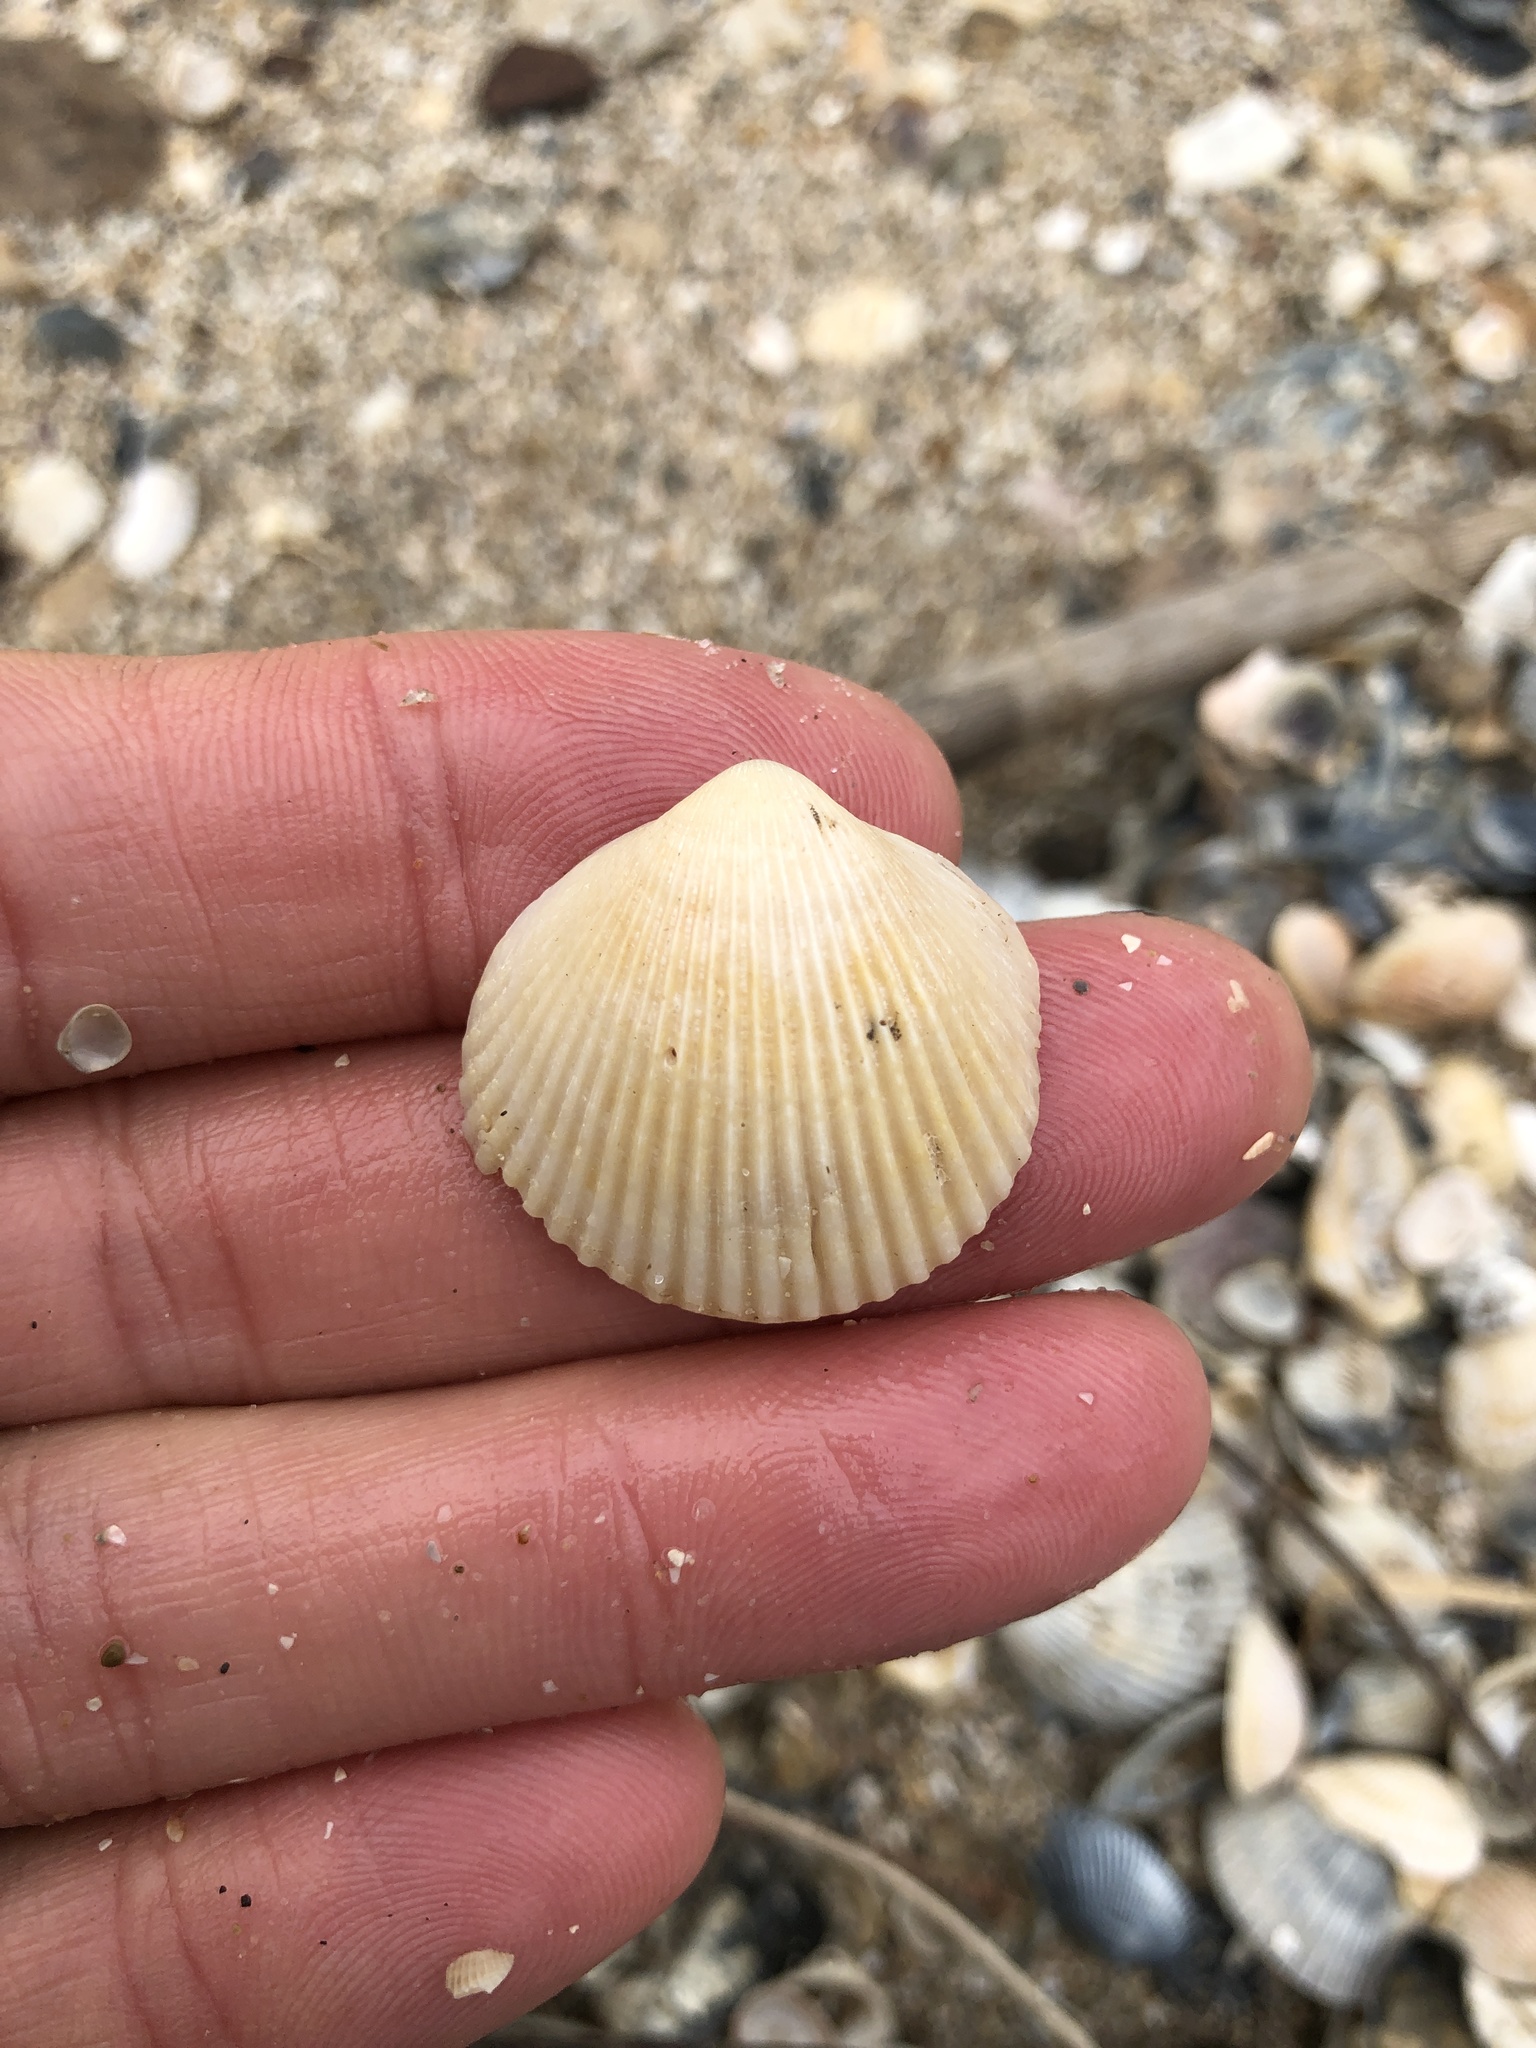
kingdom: Animalia
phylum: Mollusca
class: Bivalvia
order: Cardiida
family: Cardiidae
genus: Dallocardia
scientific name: Dallocardia muricata
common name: Yellow pricklycockle
